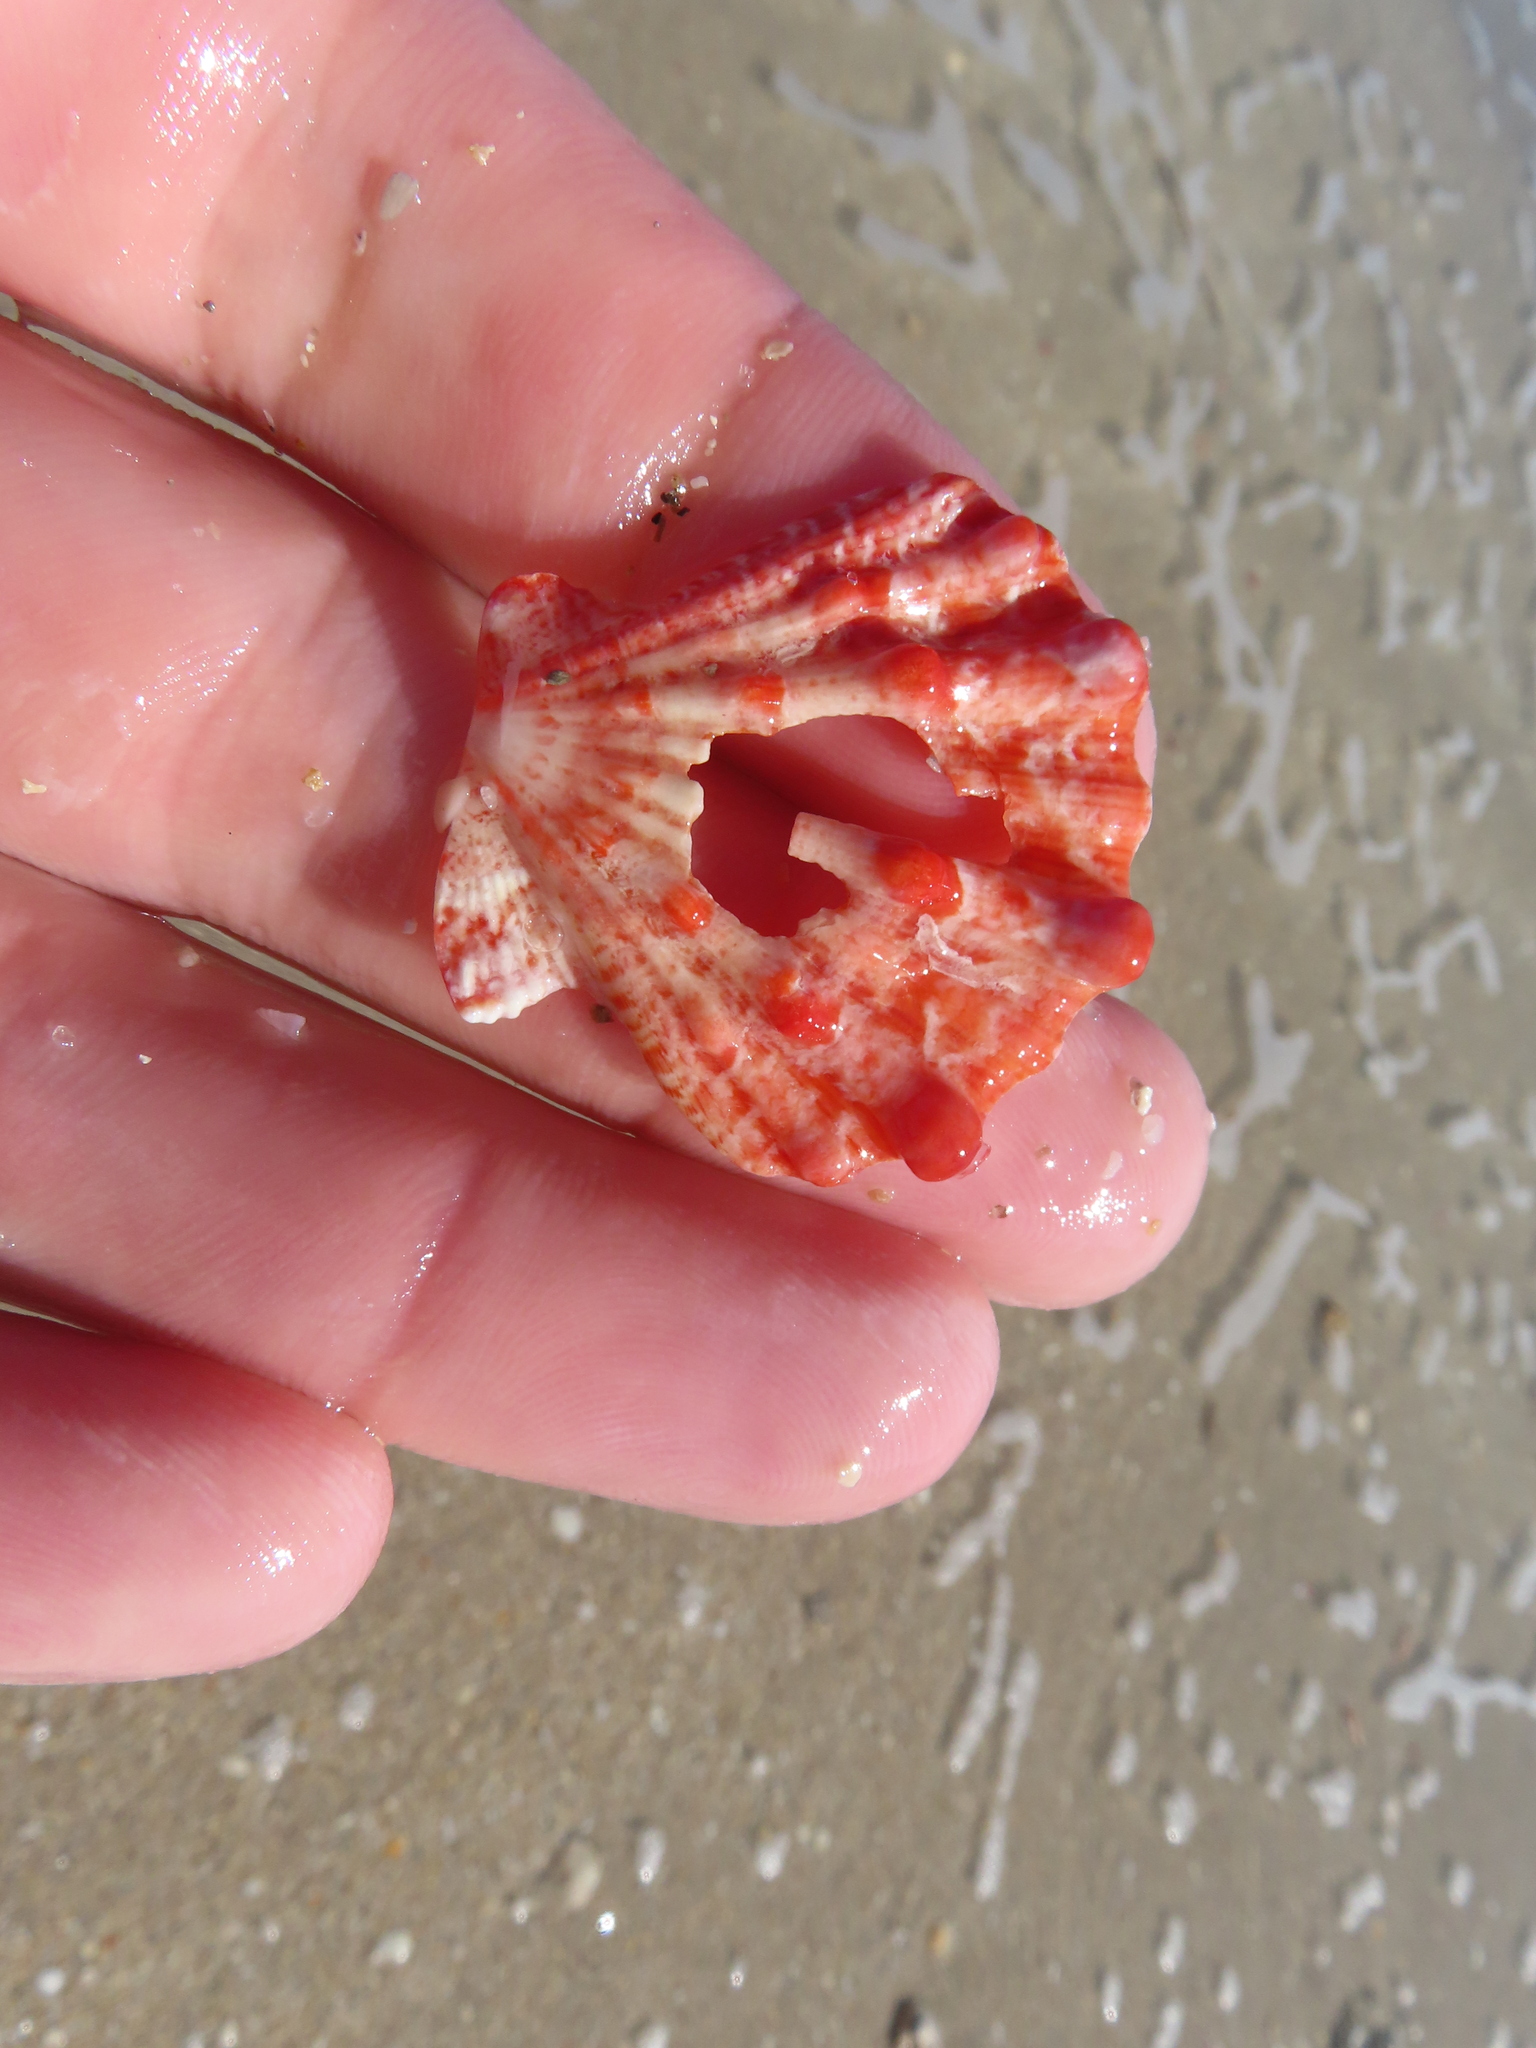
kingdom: Animalia
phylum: Mollusca
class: Bivalvia
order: Pectinida
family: Pectinidae
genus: Nodipecten
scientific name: Nodipecten fragosus
